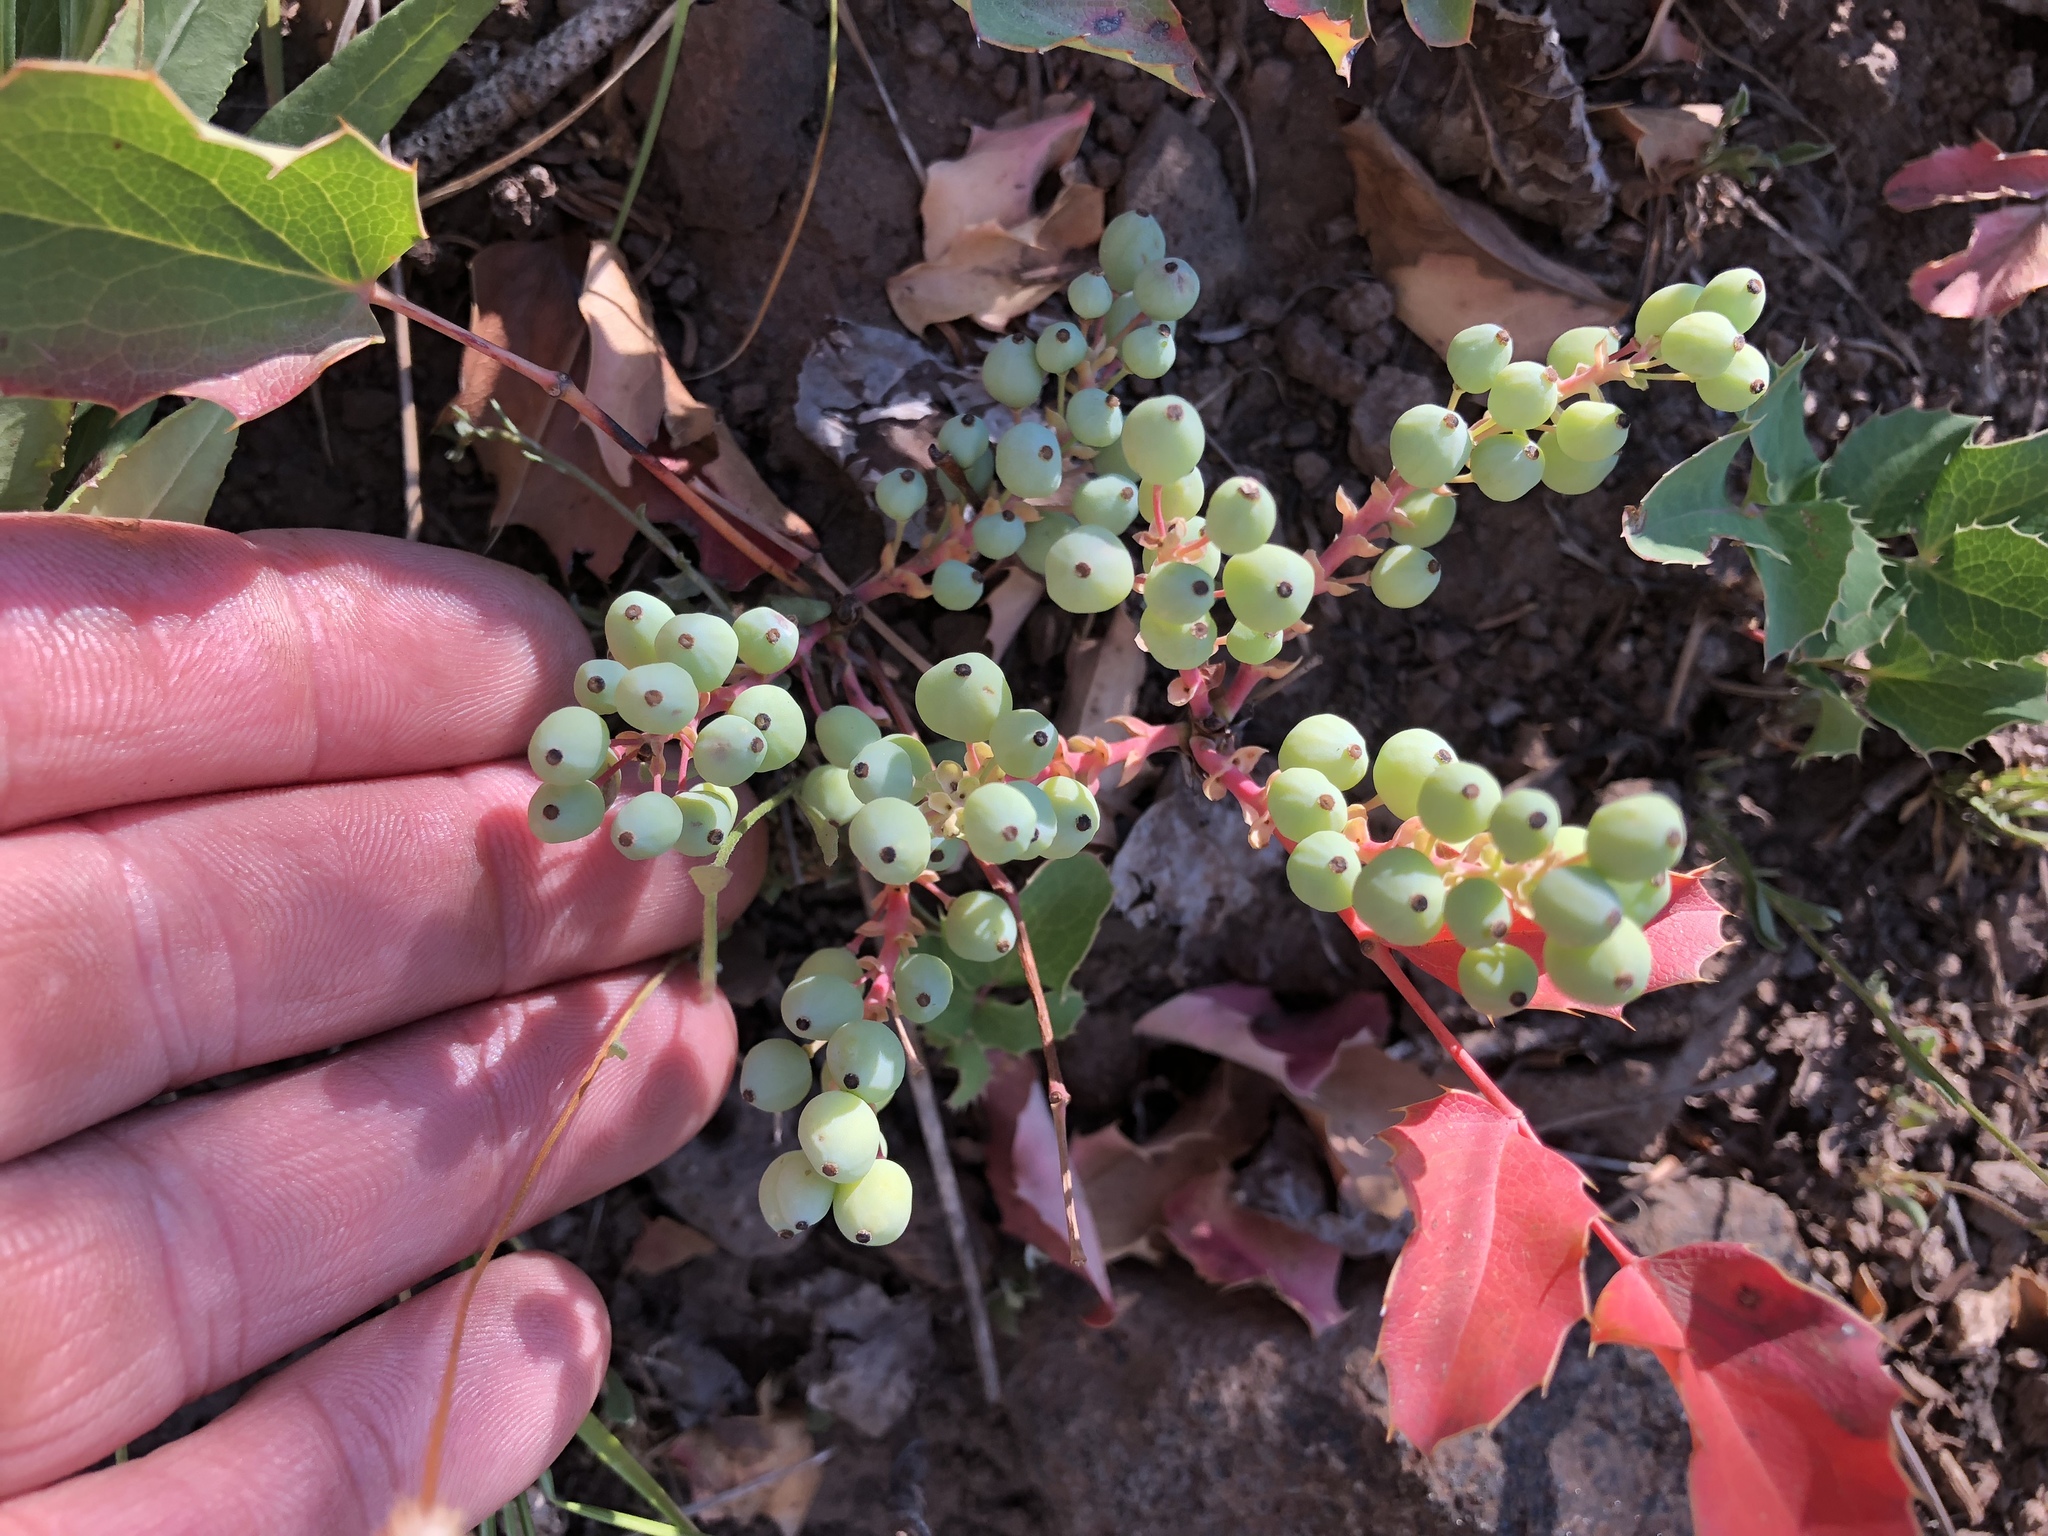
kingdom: Plantae
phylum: Tracheophyta
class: Magnoliopsida
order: Ranunculales
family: Berberidaceae
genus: Mahonia
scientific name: Mahonia repens
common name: Creeping oregon-grape
